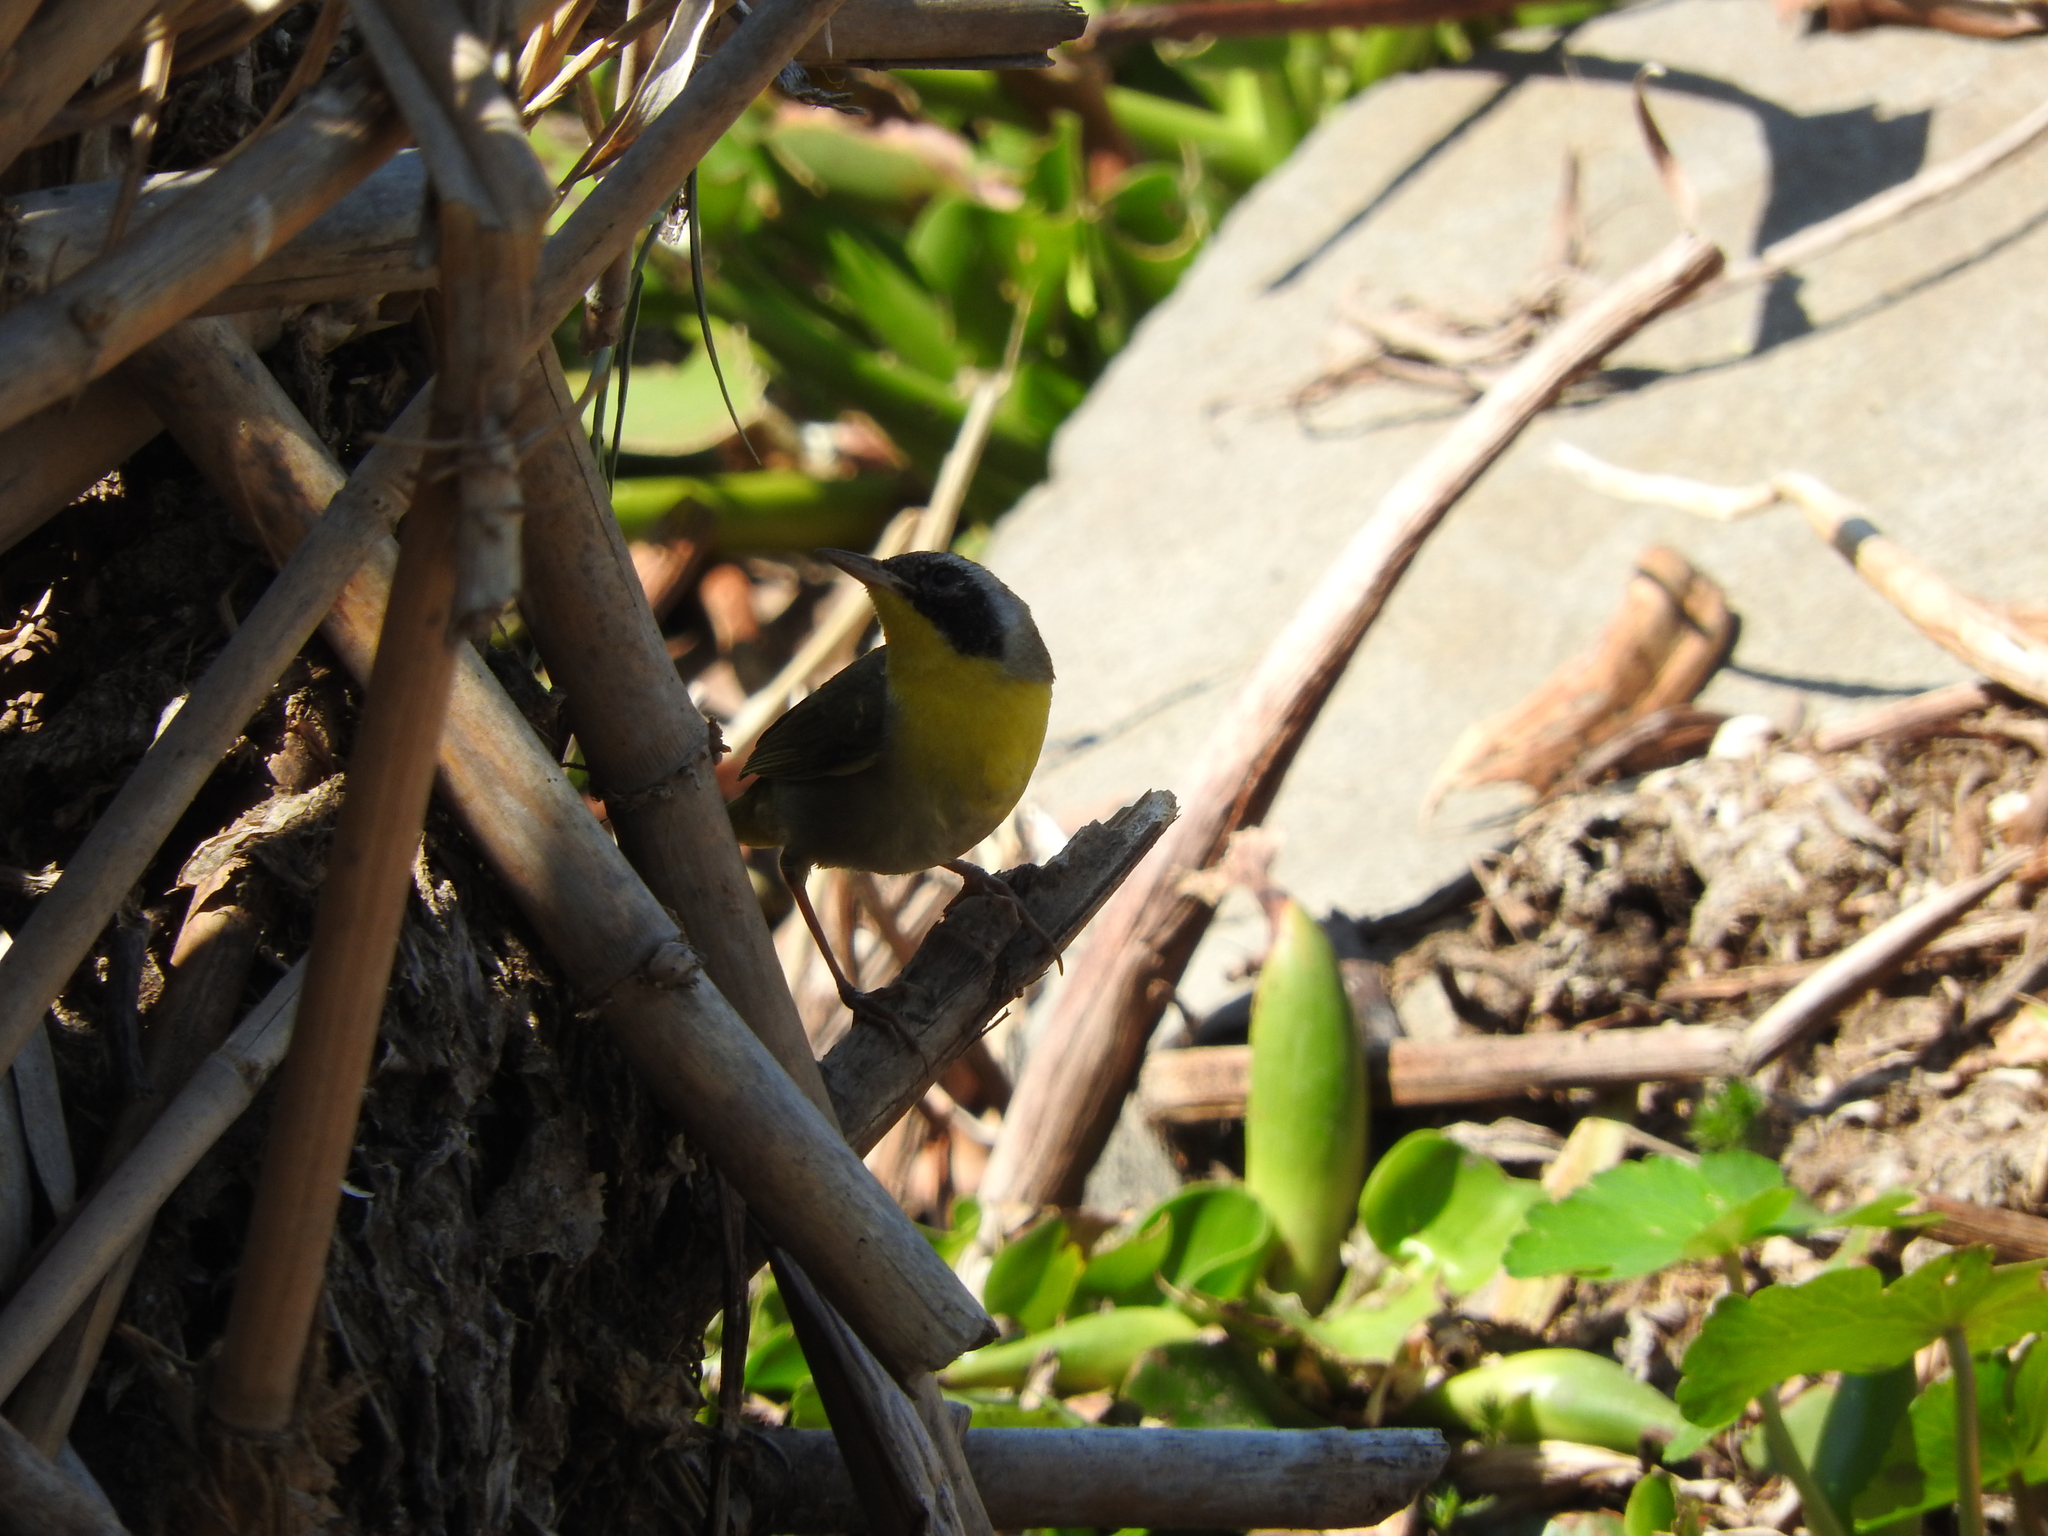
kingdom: Animalia
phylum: Chordata
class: Aves
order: Passeriformes
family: Parulidae
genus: Geothlypis
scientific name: Geothlypis trichas
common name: Common yellowthroat
